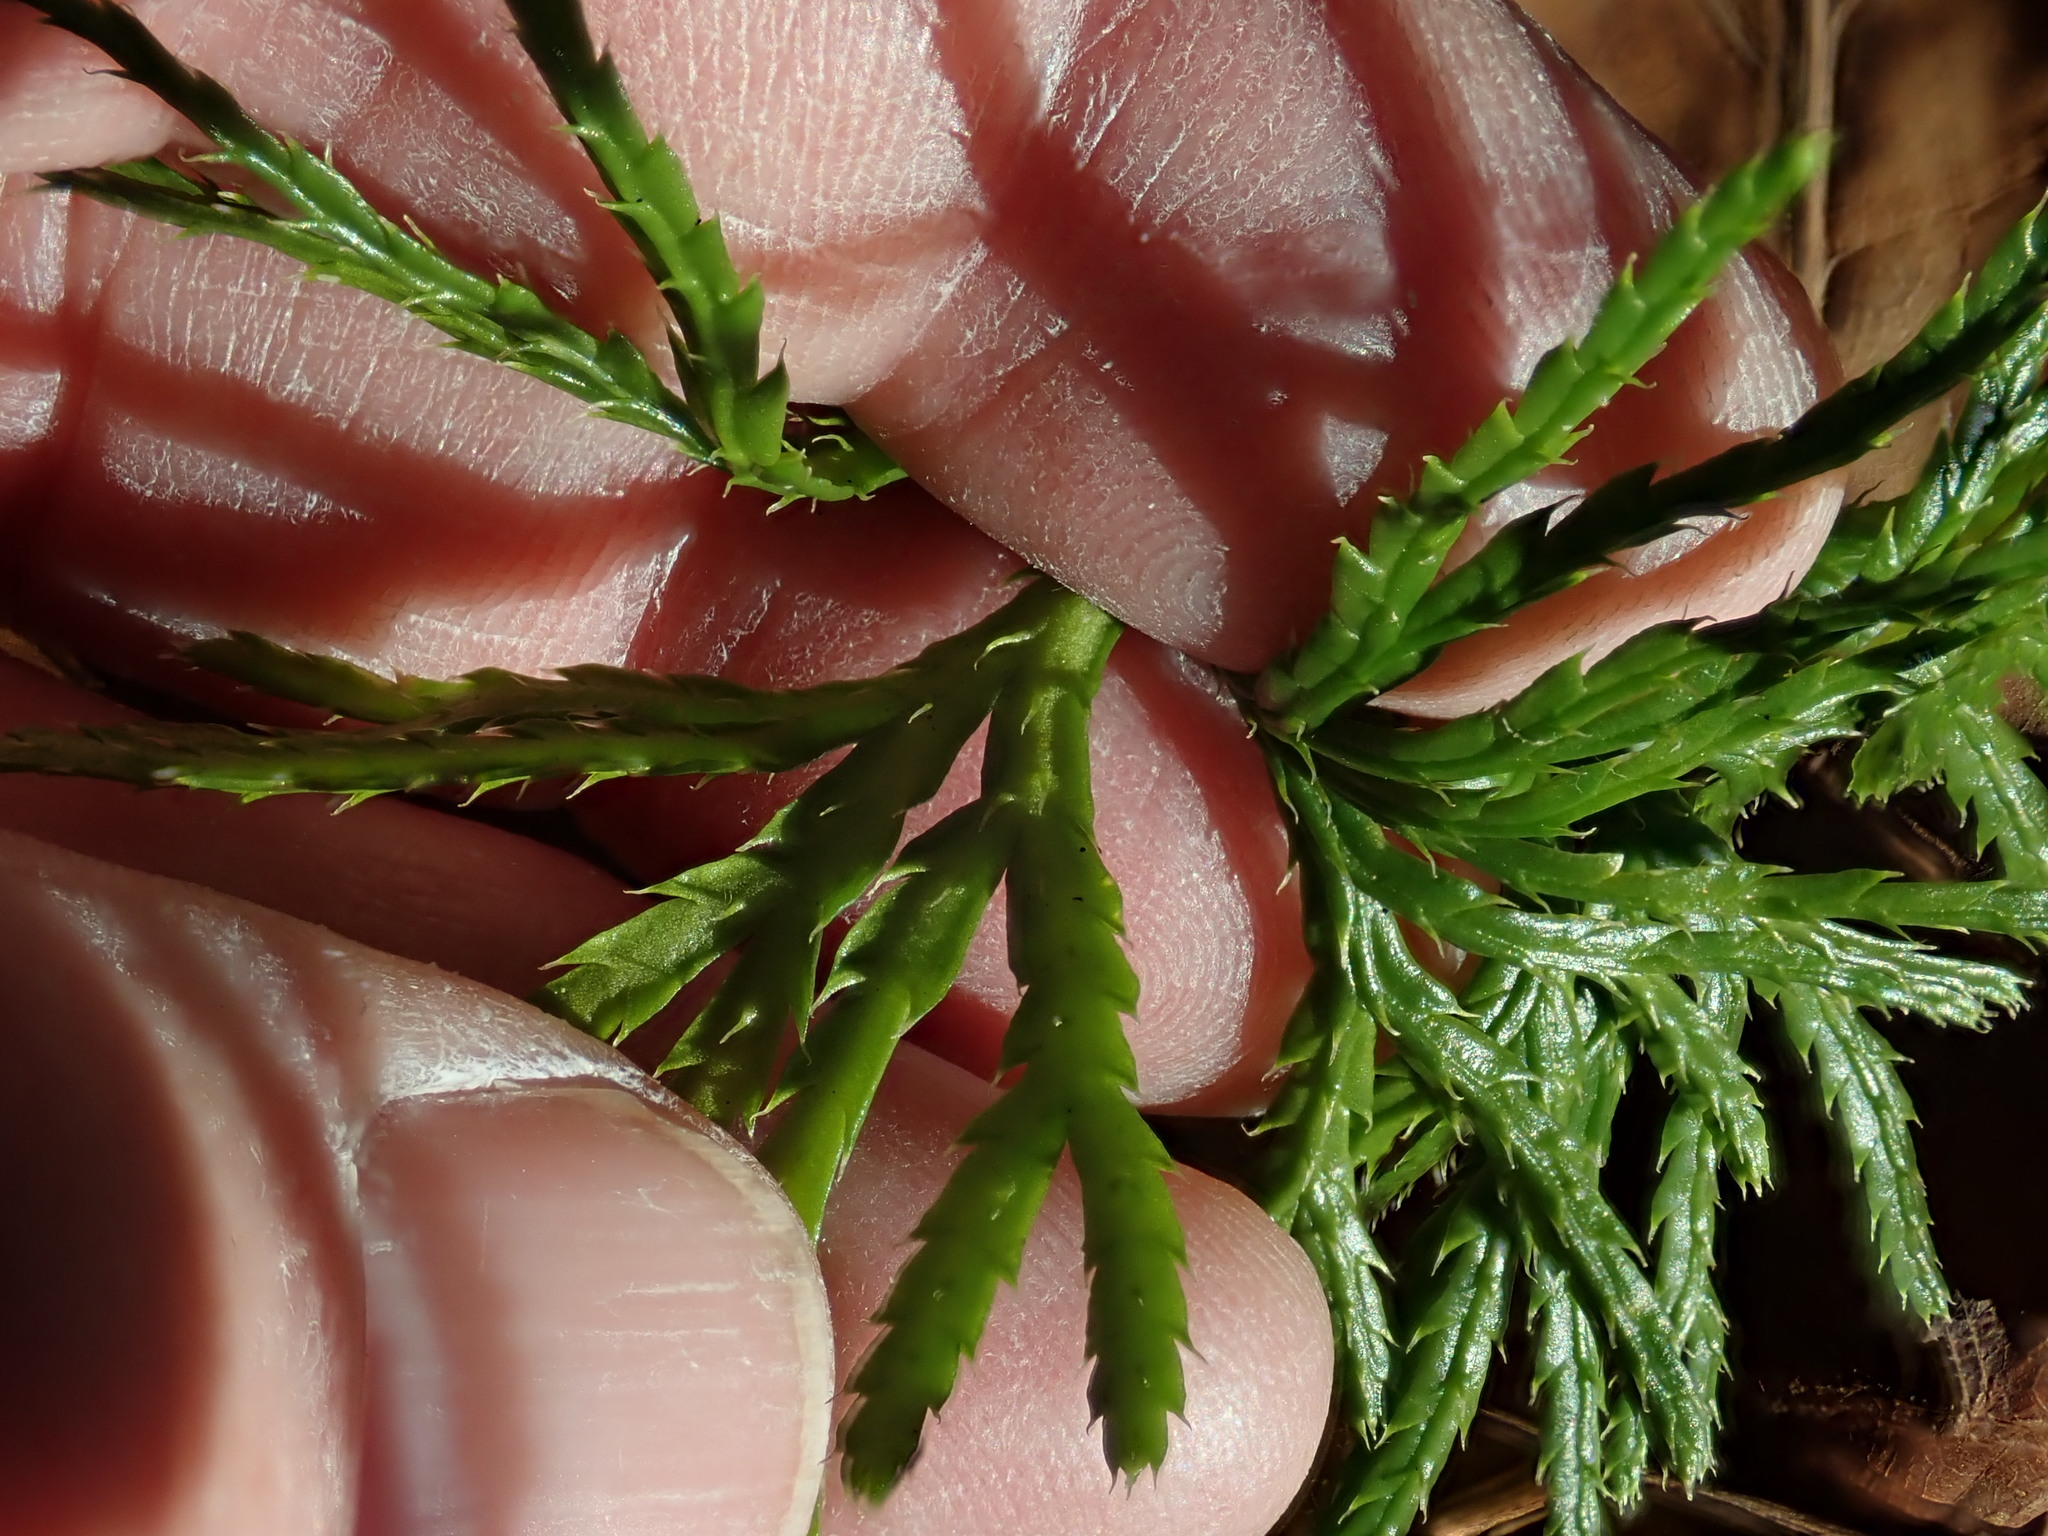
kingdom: Plantae
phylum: Tracheophyta
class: Lycopodiopsida
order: Lycopodiales
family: Lycopodiaceae
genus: Diphasiastrum
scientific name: Diphasiastrum digitatum
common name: Southern running-pine
